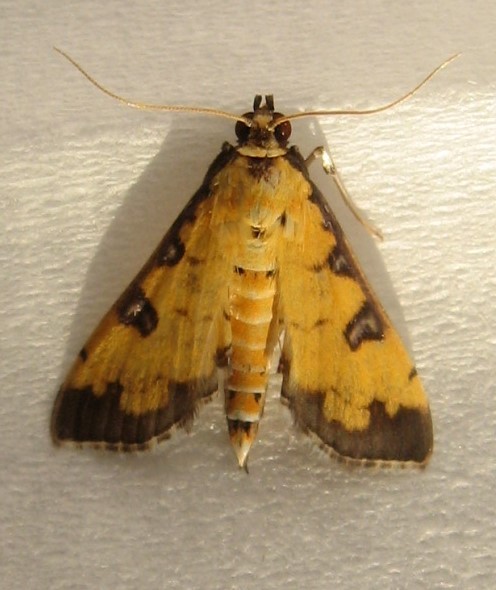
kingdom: Animalia
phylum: Arthropoda
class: Insecta
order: Lepidoptera
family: Crambidae
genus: Ategumia
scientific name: Ategumia ebulealis
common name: Moth
